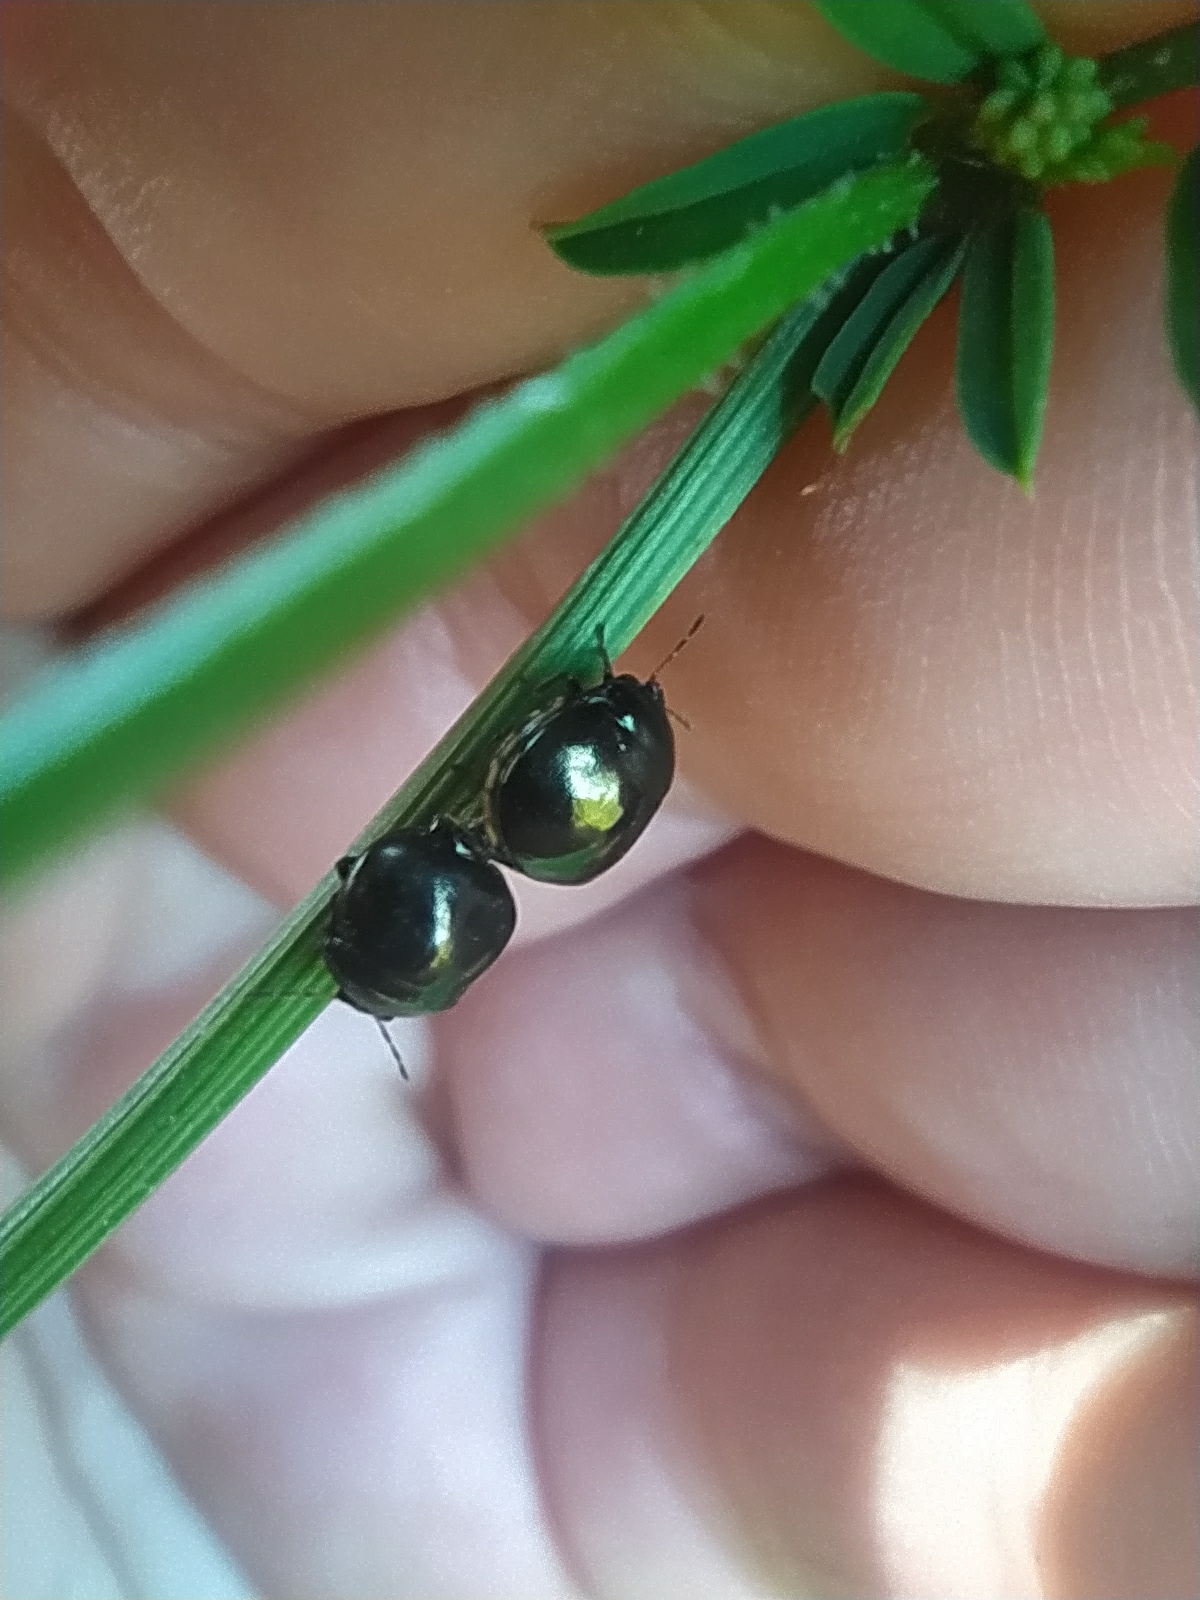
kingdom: Animalia
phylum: Arthropoda
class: Insecta
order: Hemiptera
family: Plataspidae
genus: Coptosoma
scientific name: Coptosoma scutellatum
